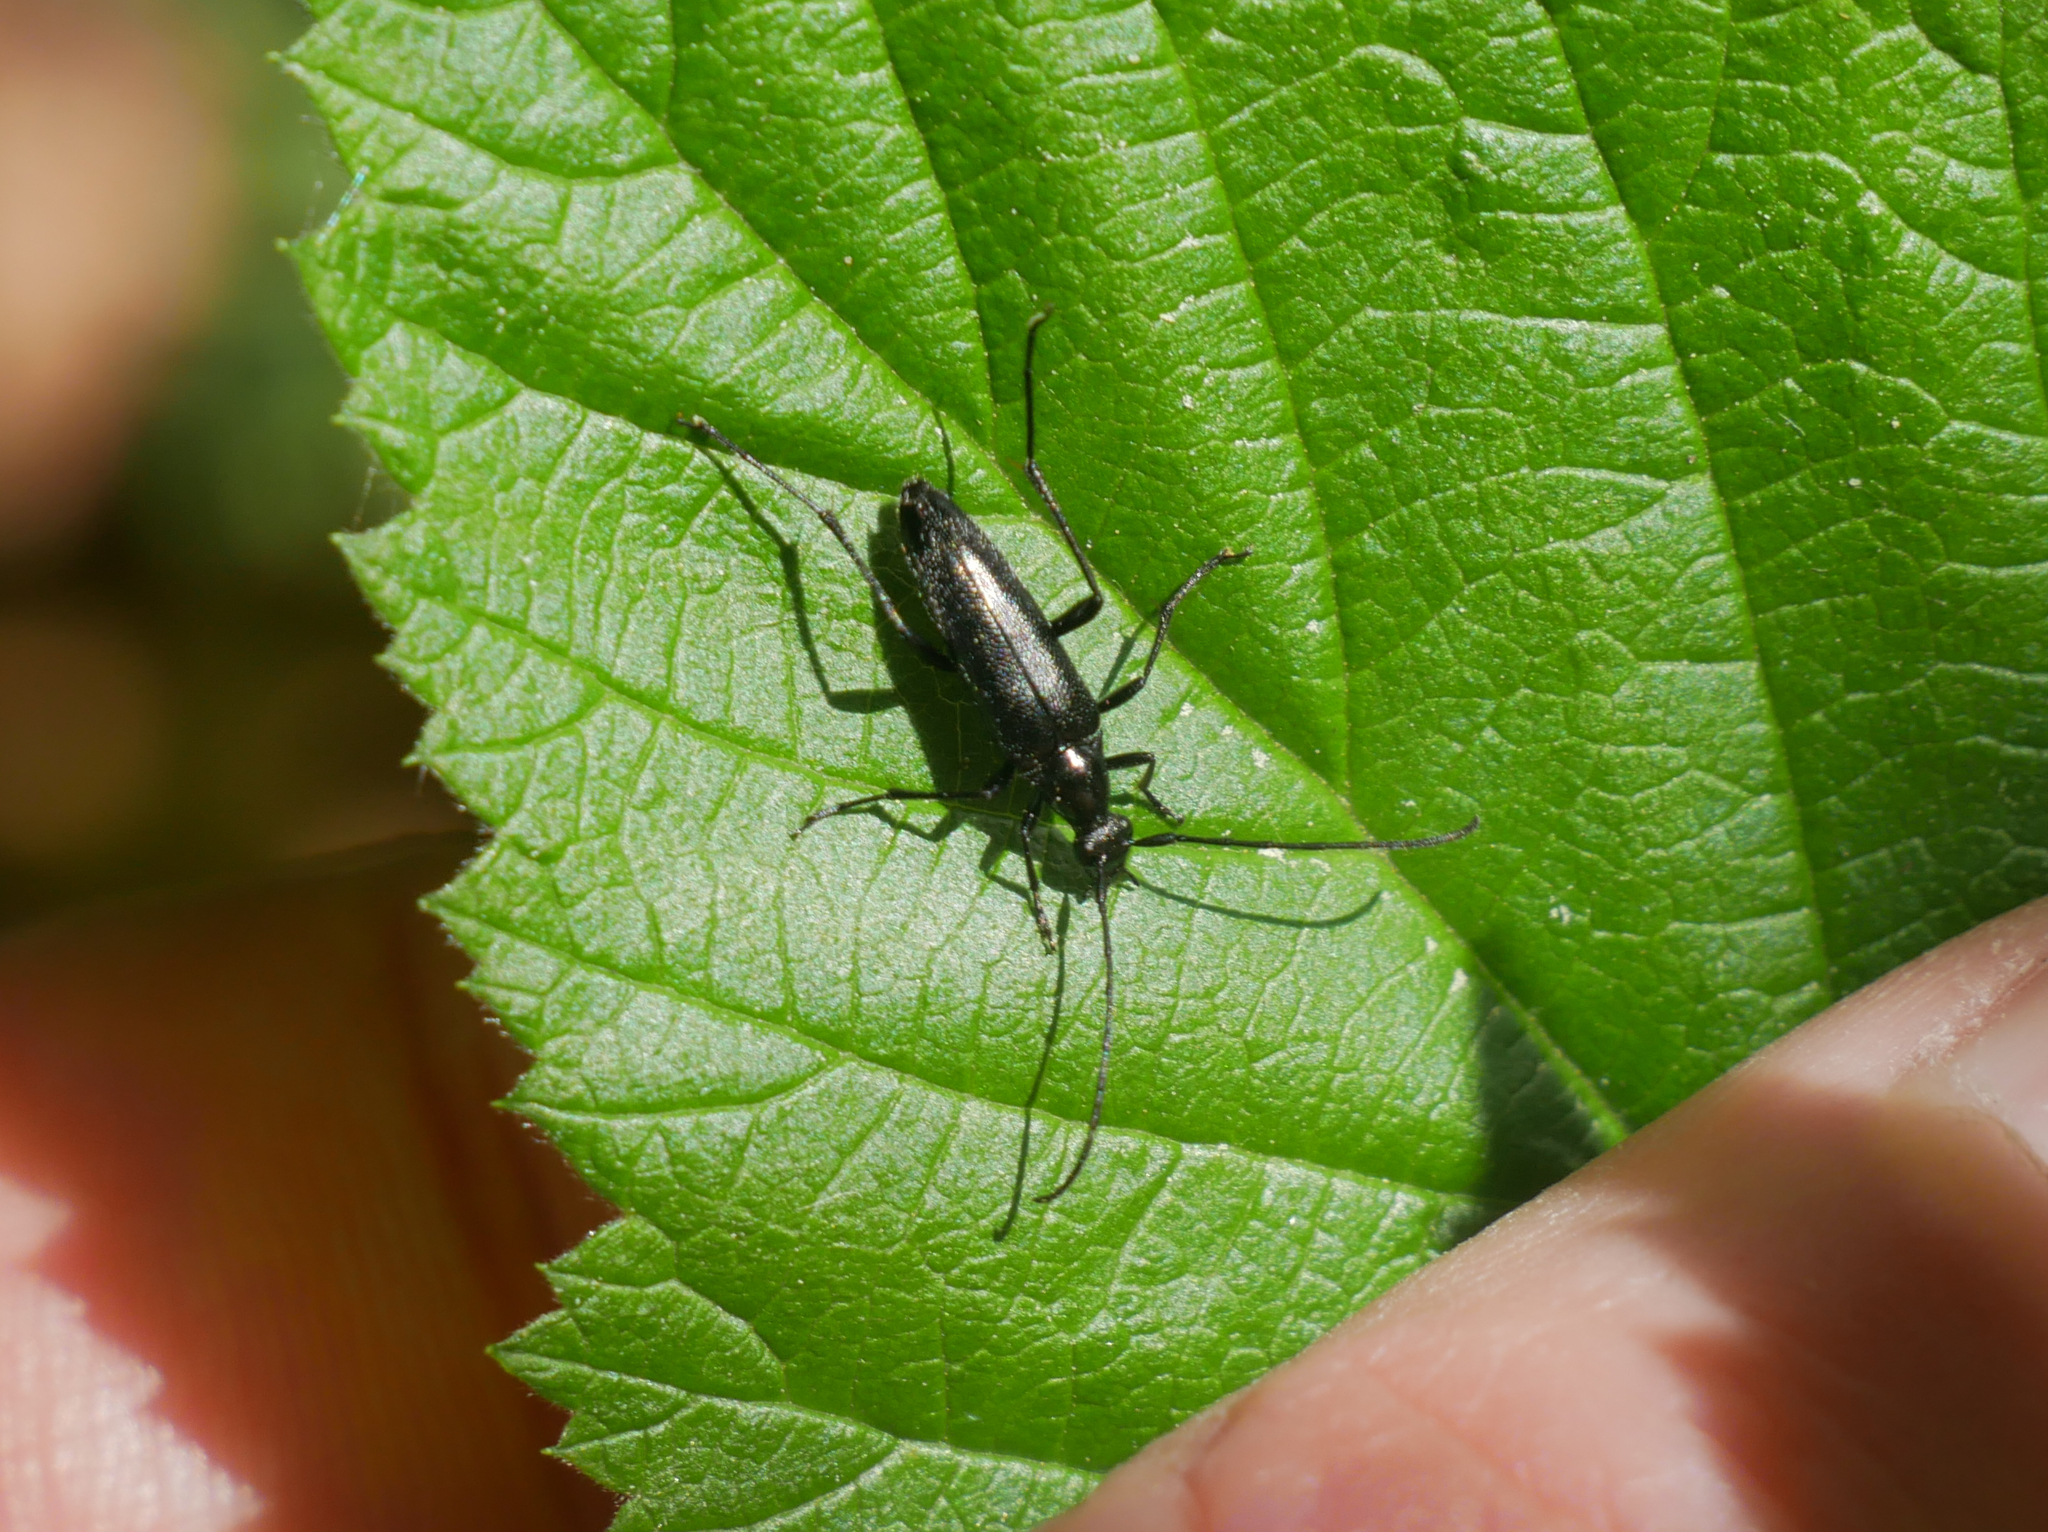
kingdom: Animalia
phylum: Arthropoda
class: Insecta
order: Coleoptera
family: Cerambycidae
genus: Stenurella
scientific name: Stenurella nigra
